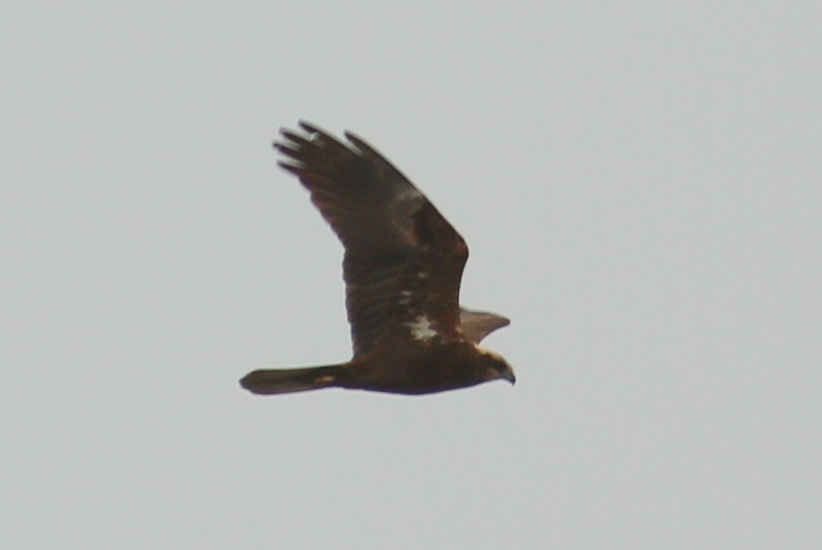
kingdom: Animalia
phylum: Chordata
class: Aves
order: Accipitriformes
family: Accipitridae
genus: Circus
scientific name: Circus aeruginosus
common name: Western marsh harrier
